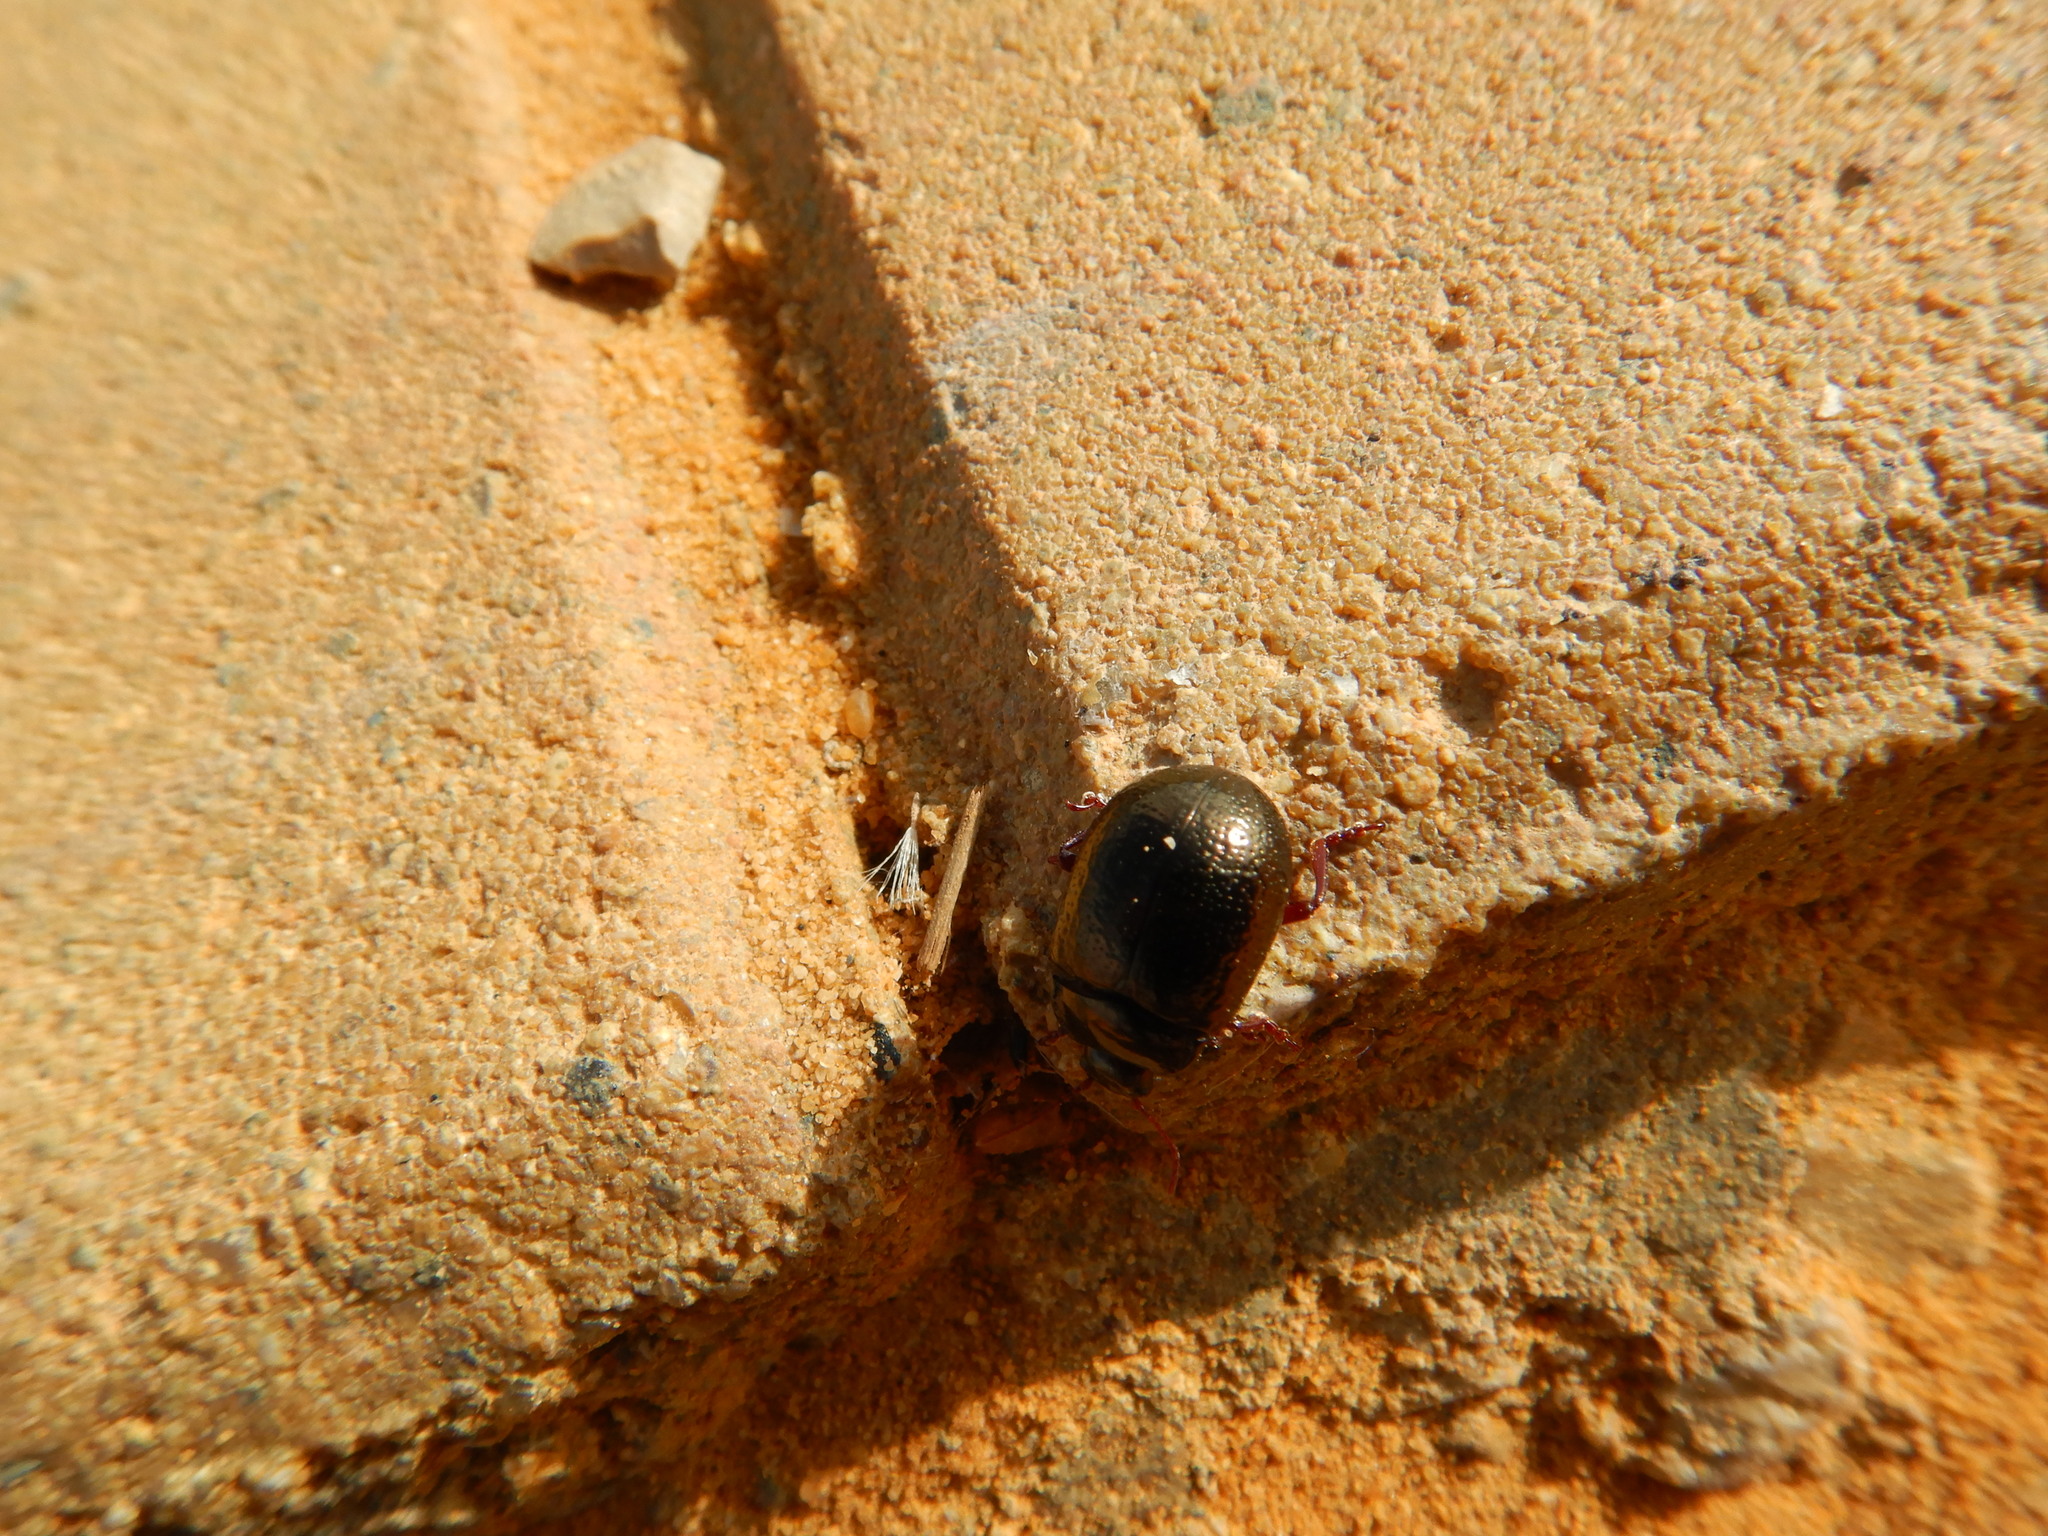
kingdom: Animalia
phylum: Arthropoda
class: Insecta
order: Coleoptera
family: Chrysomelidae
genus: Chrysolina
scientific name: Chrysolina bankii
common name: Leaf beetle
